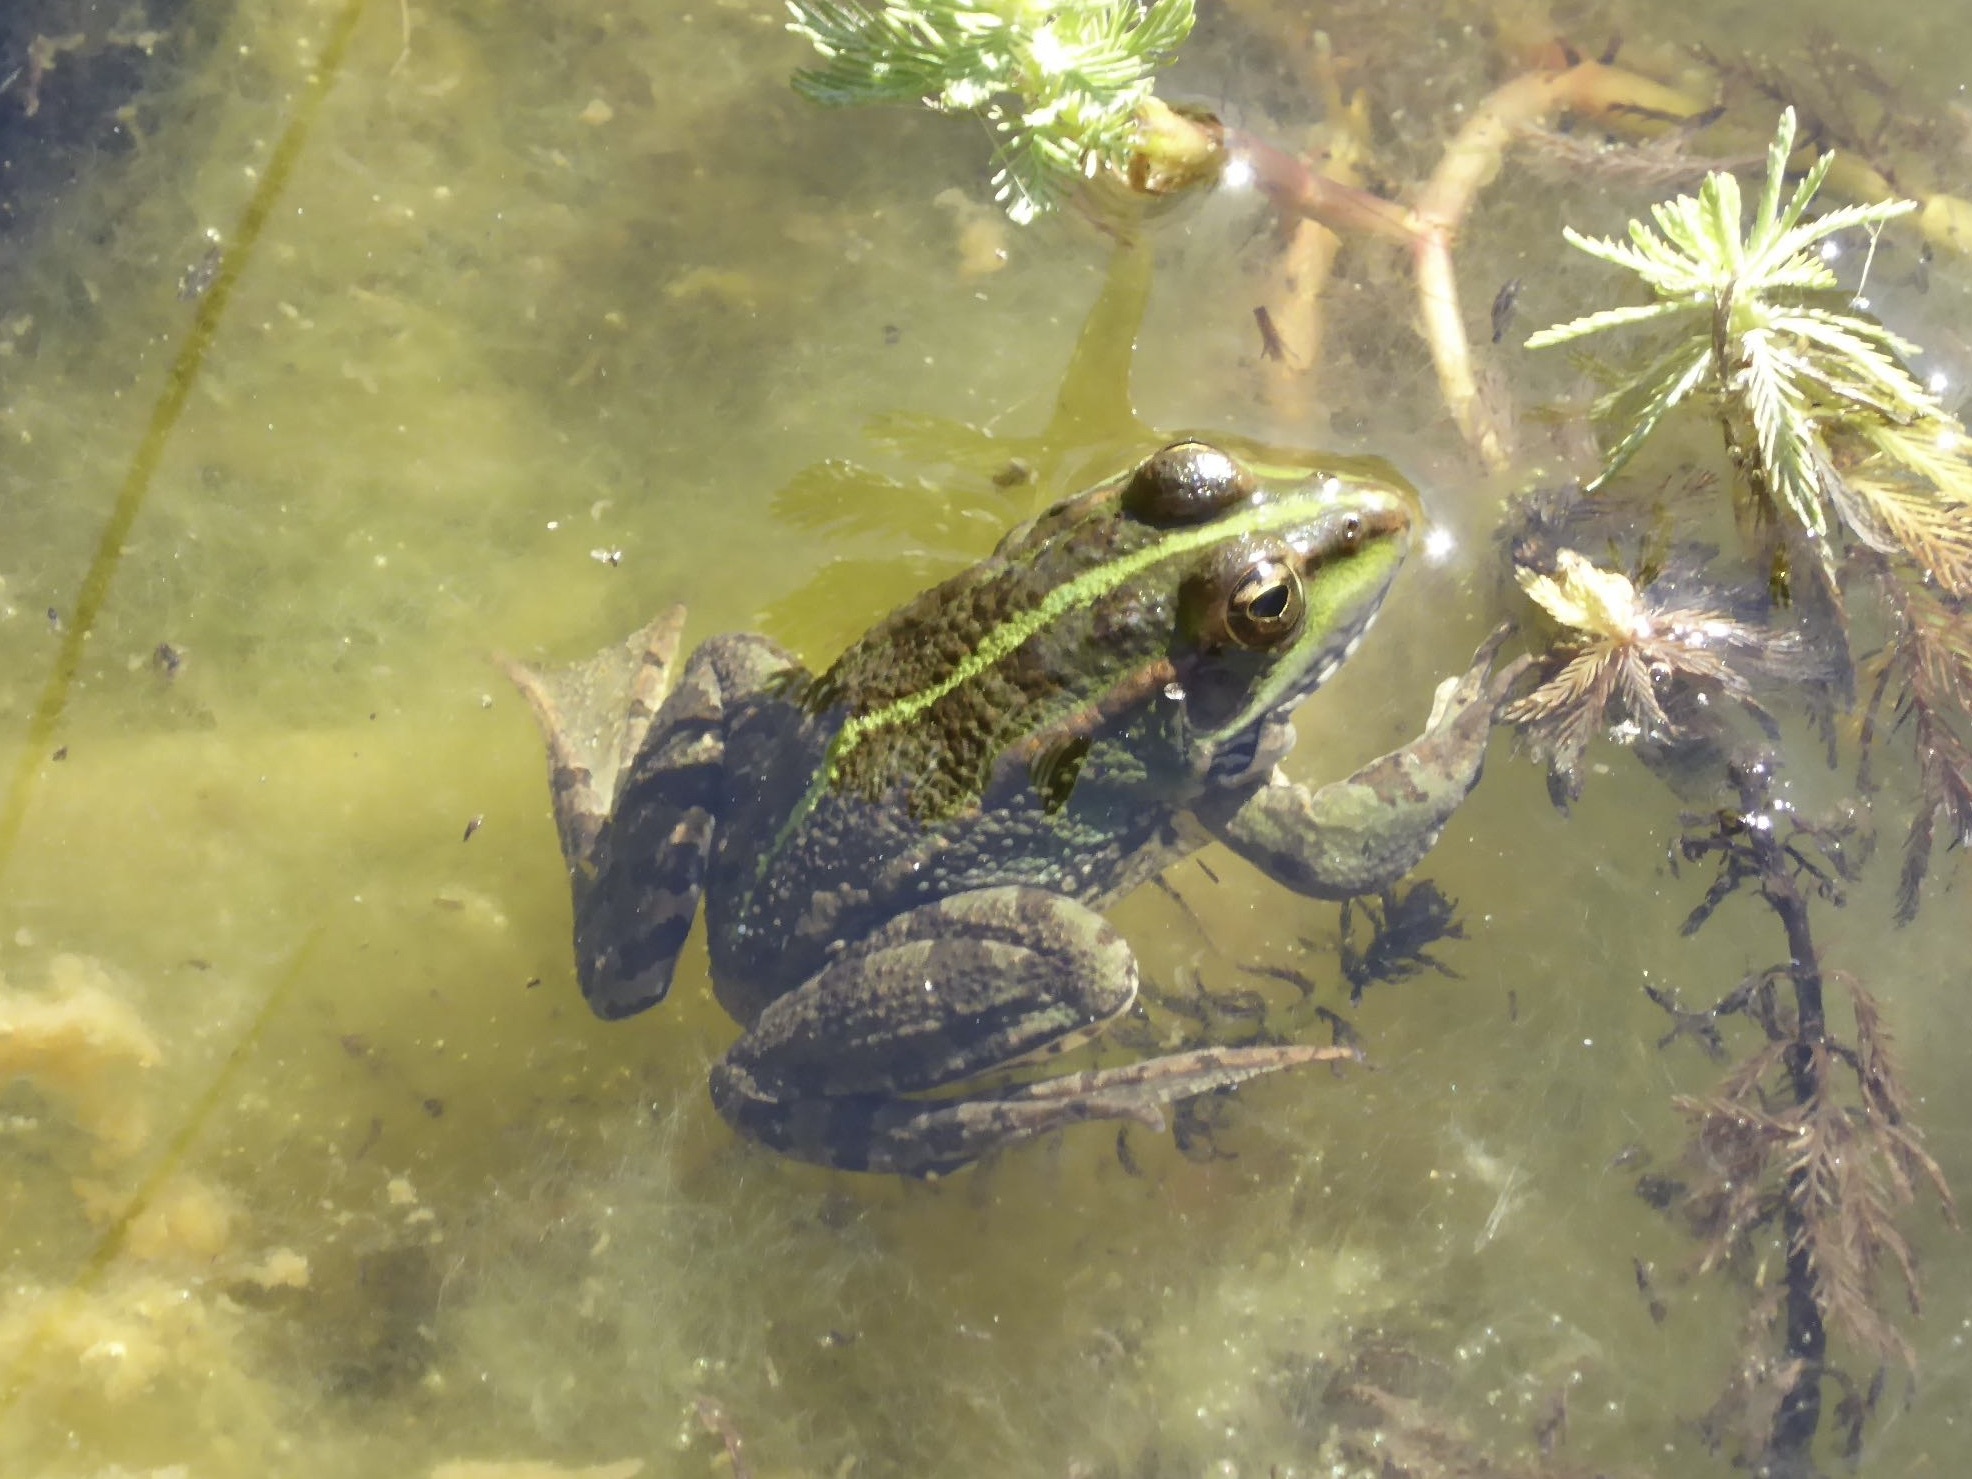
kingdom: Animalia
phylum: Chordata
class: Amphibia
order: Anura
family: Ranidae
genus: Pelophylax
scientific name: Pelophylax perezi
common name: Perez's frog
